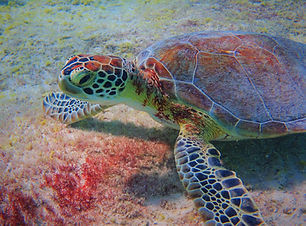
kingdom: Animalia
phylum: Chordata
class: Testudines
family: Cheloniidae
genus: Chelonia
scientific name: Chelonia mydas
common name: Green turtle
